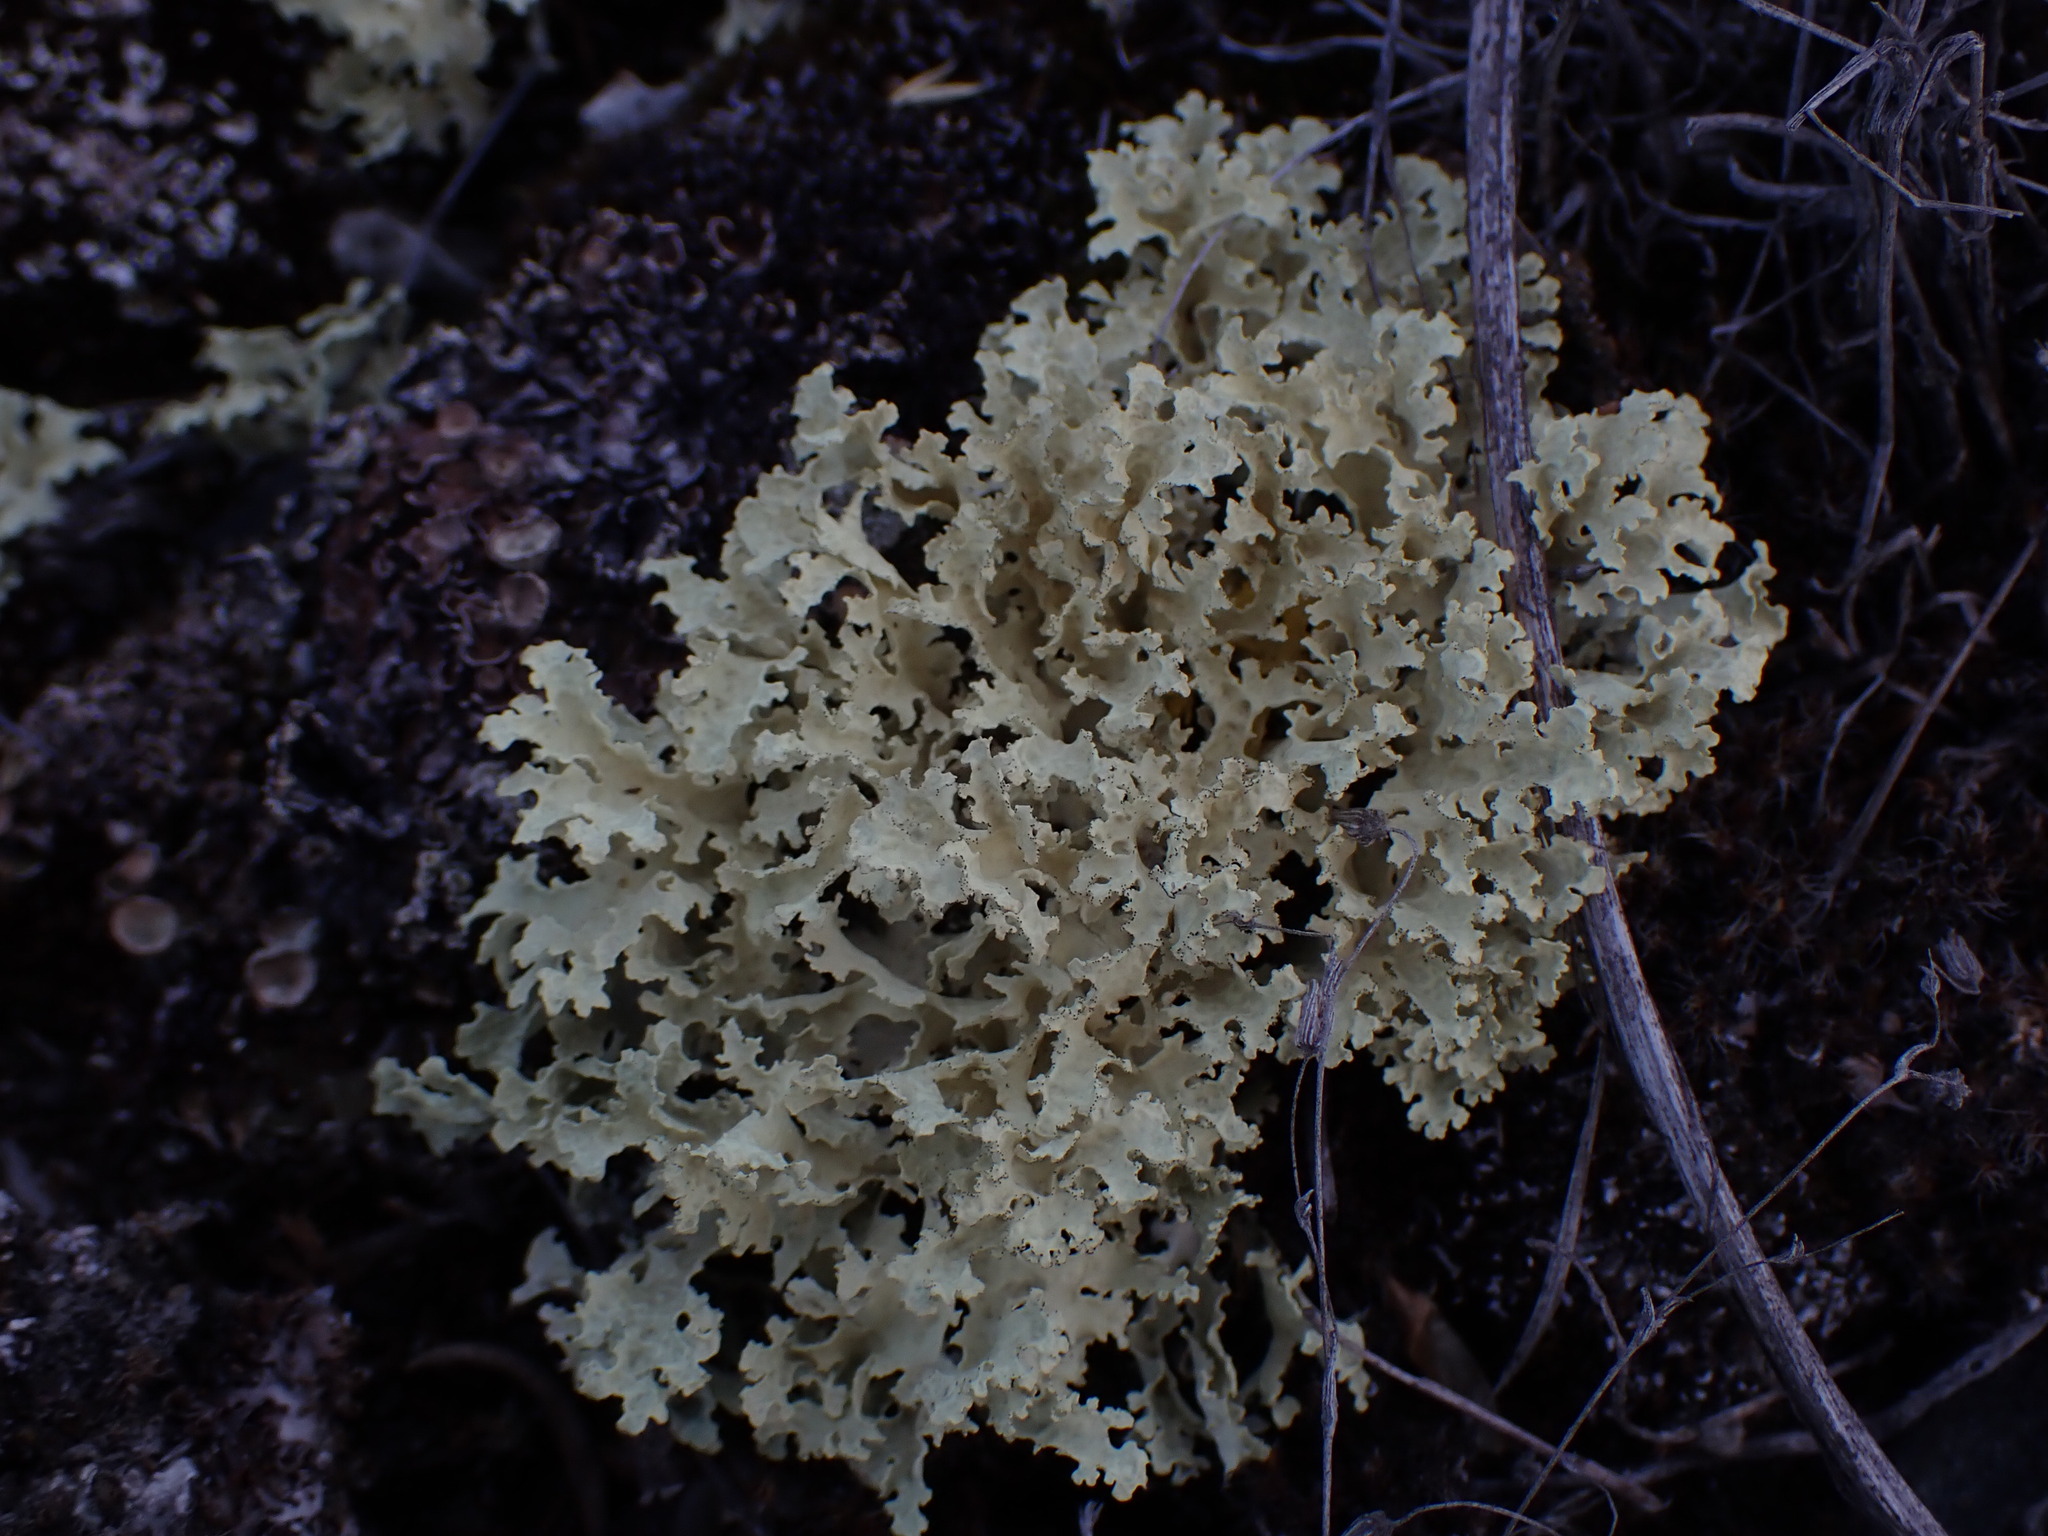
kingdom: Fungi
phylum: Ascomycota
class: Lecanoromycetes
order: Lecanorales
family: Parmeliaceae
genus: Nephromopsis
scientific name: Nephromopsis nivalis
